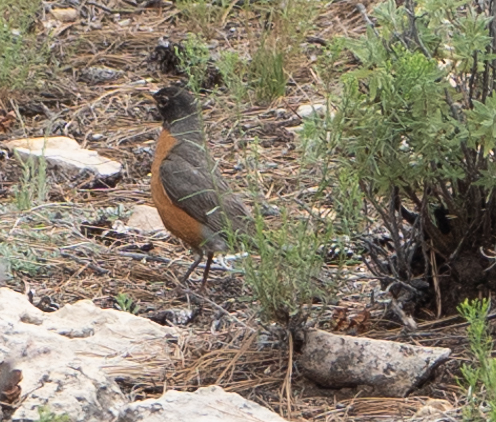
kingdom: Animalia
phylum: Chordata
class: Aves
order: Passeriformes
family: Turdidae
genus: Turdus
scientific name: Turdus migratorius
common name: American robin
